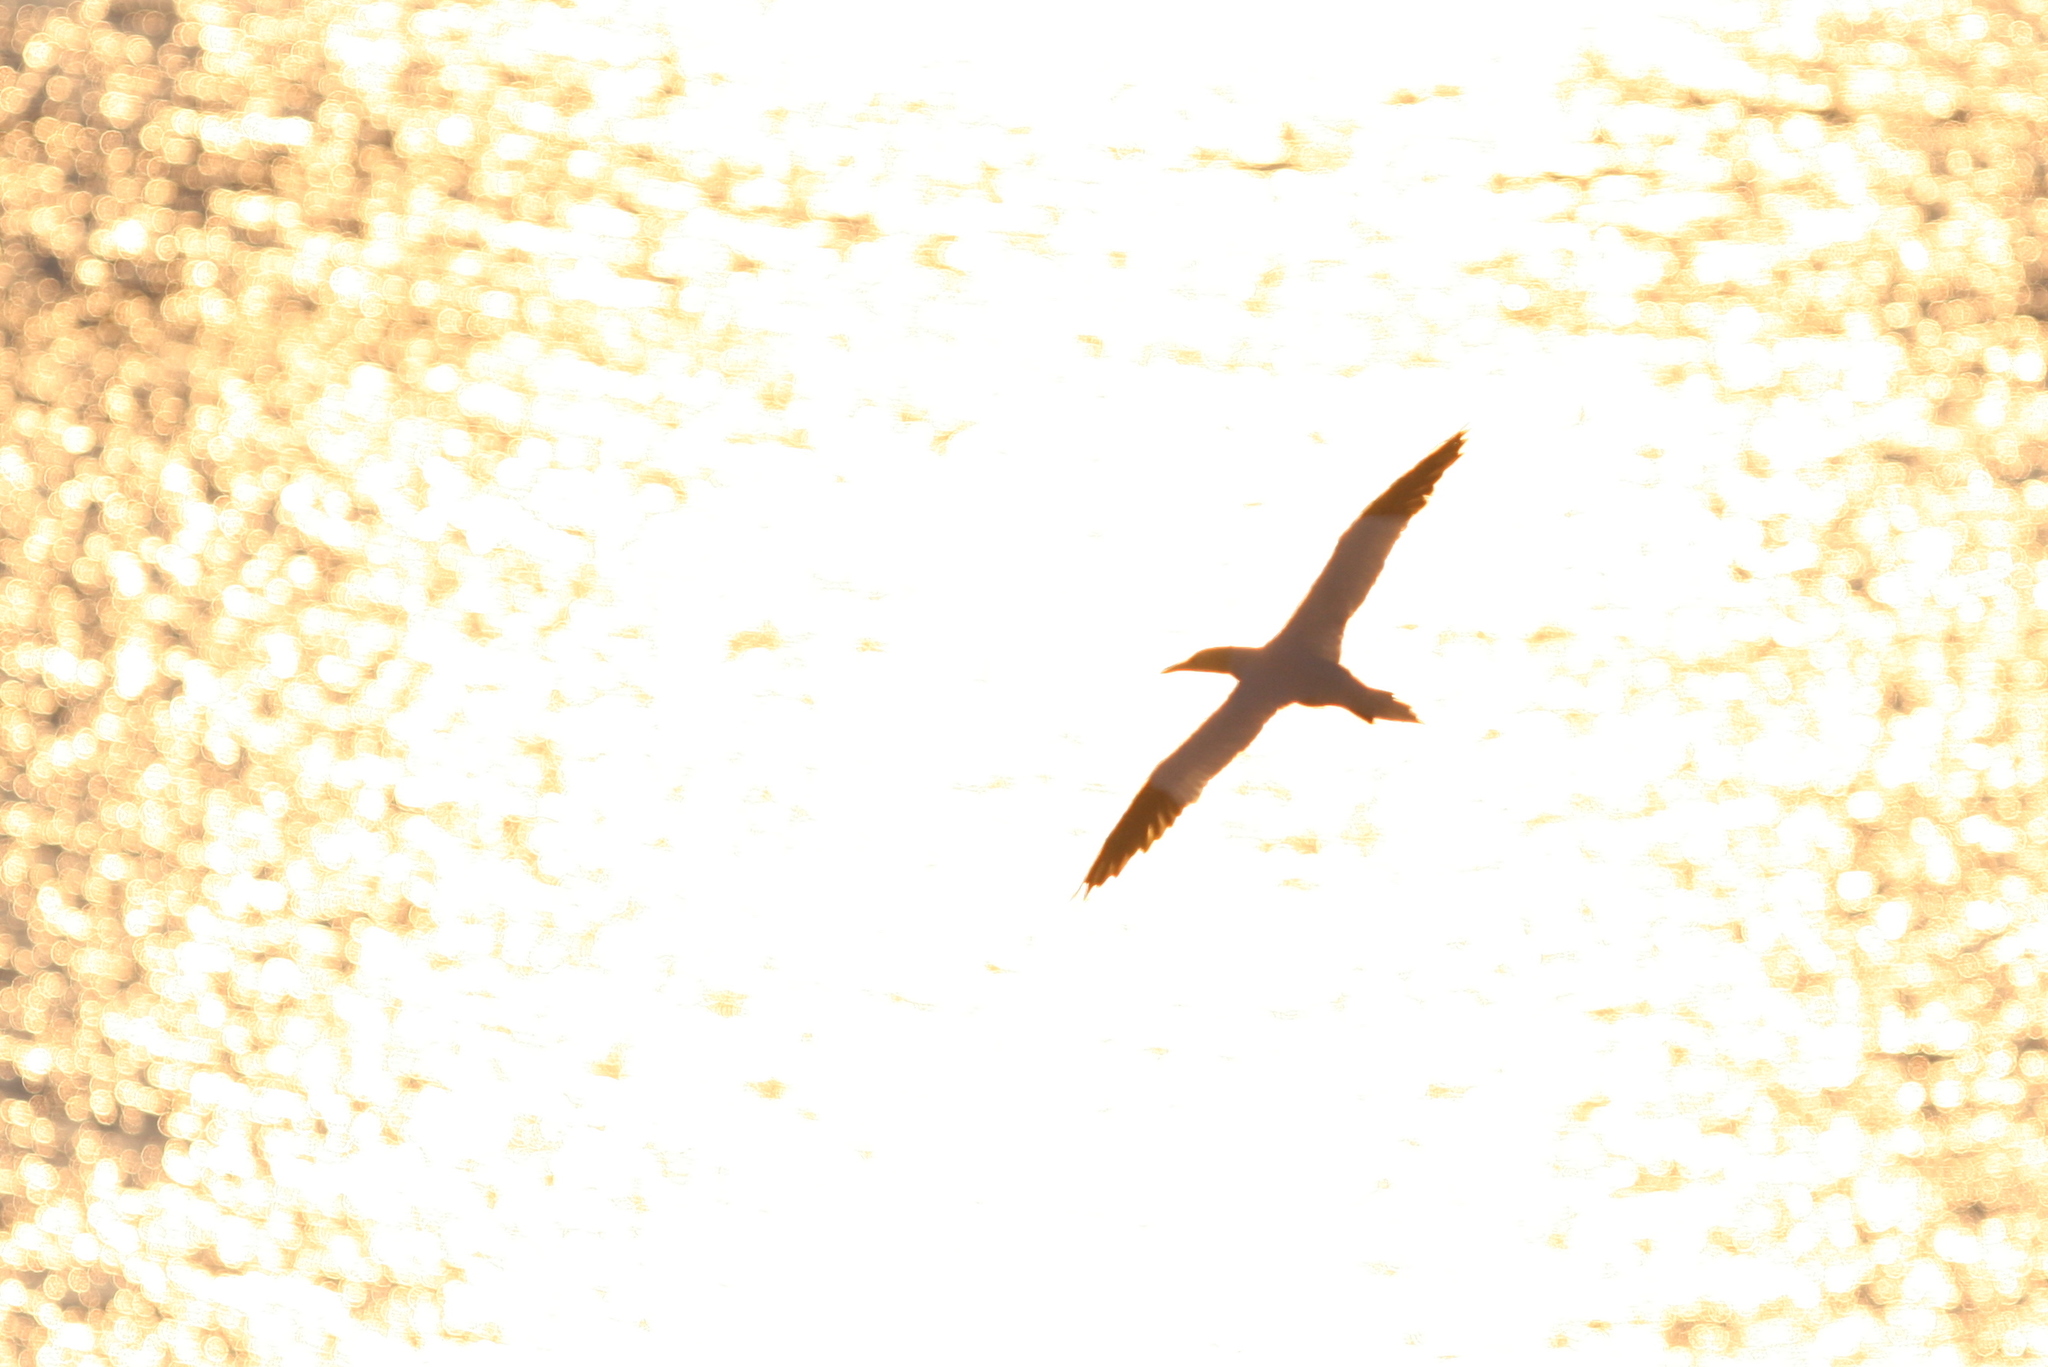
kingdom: Animalia
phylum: Chordata
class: Aves
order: Suliformes
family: Sulidae
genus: Morus
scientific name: Morus bassanus
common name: Northern gannet
